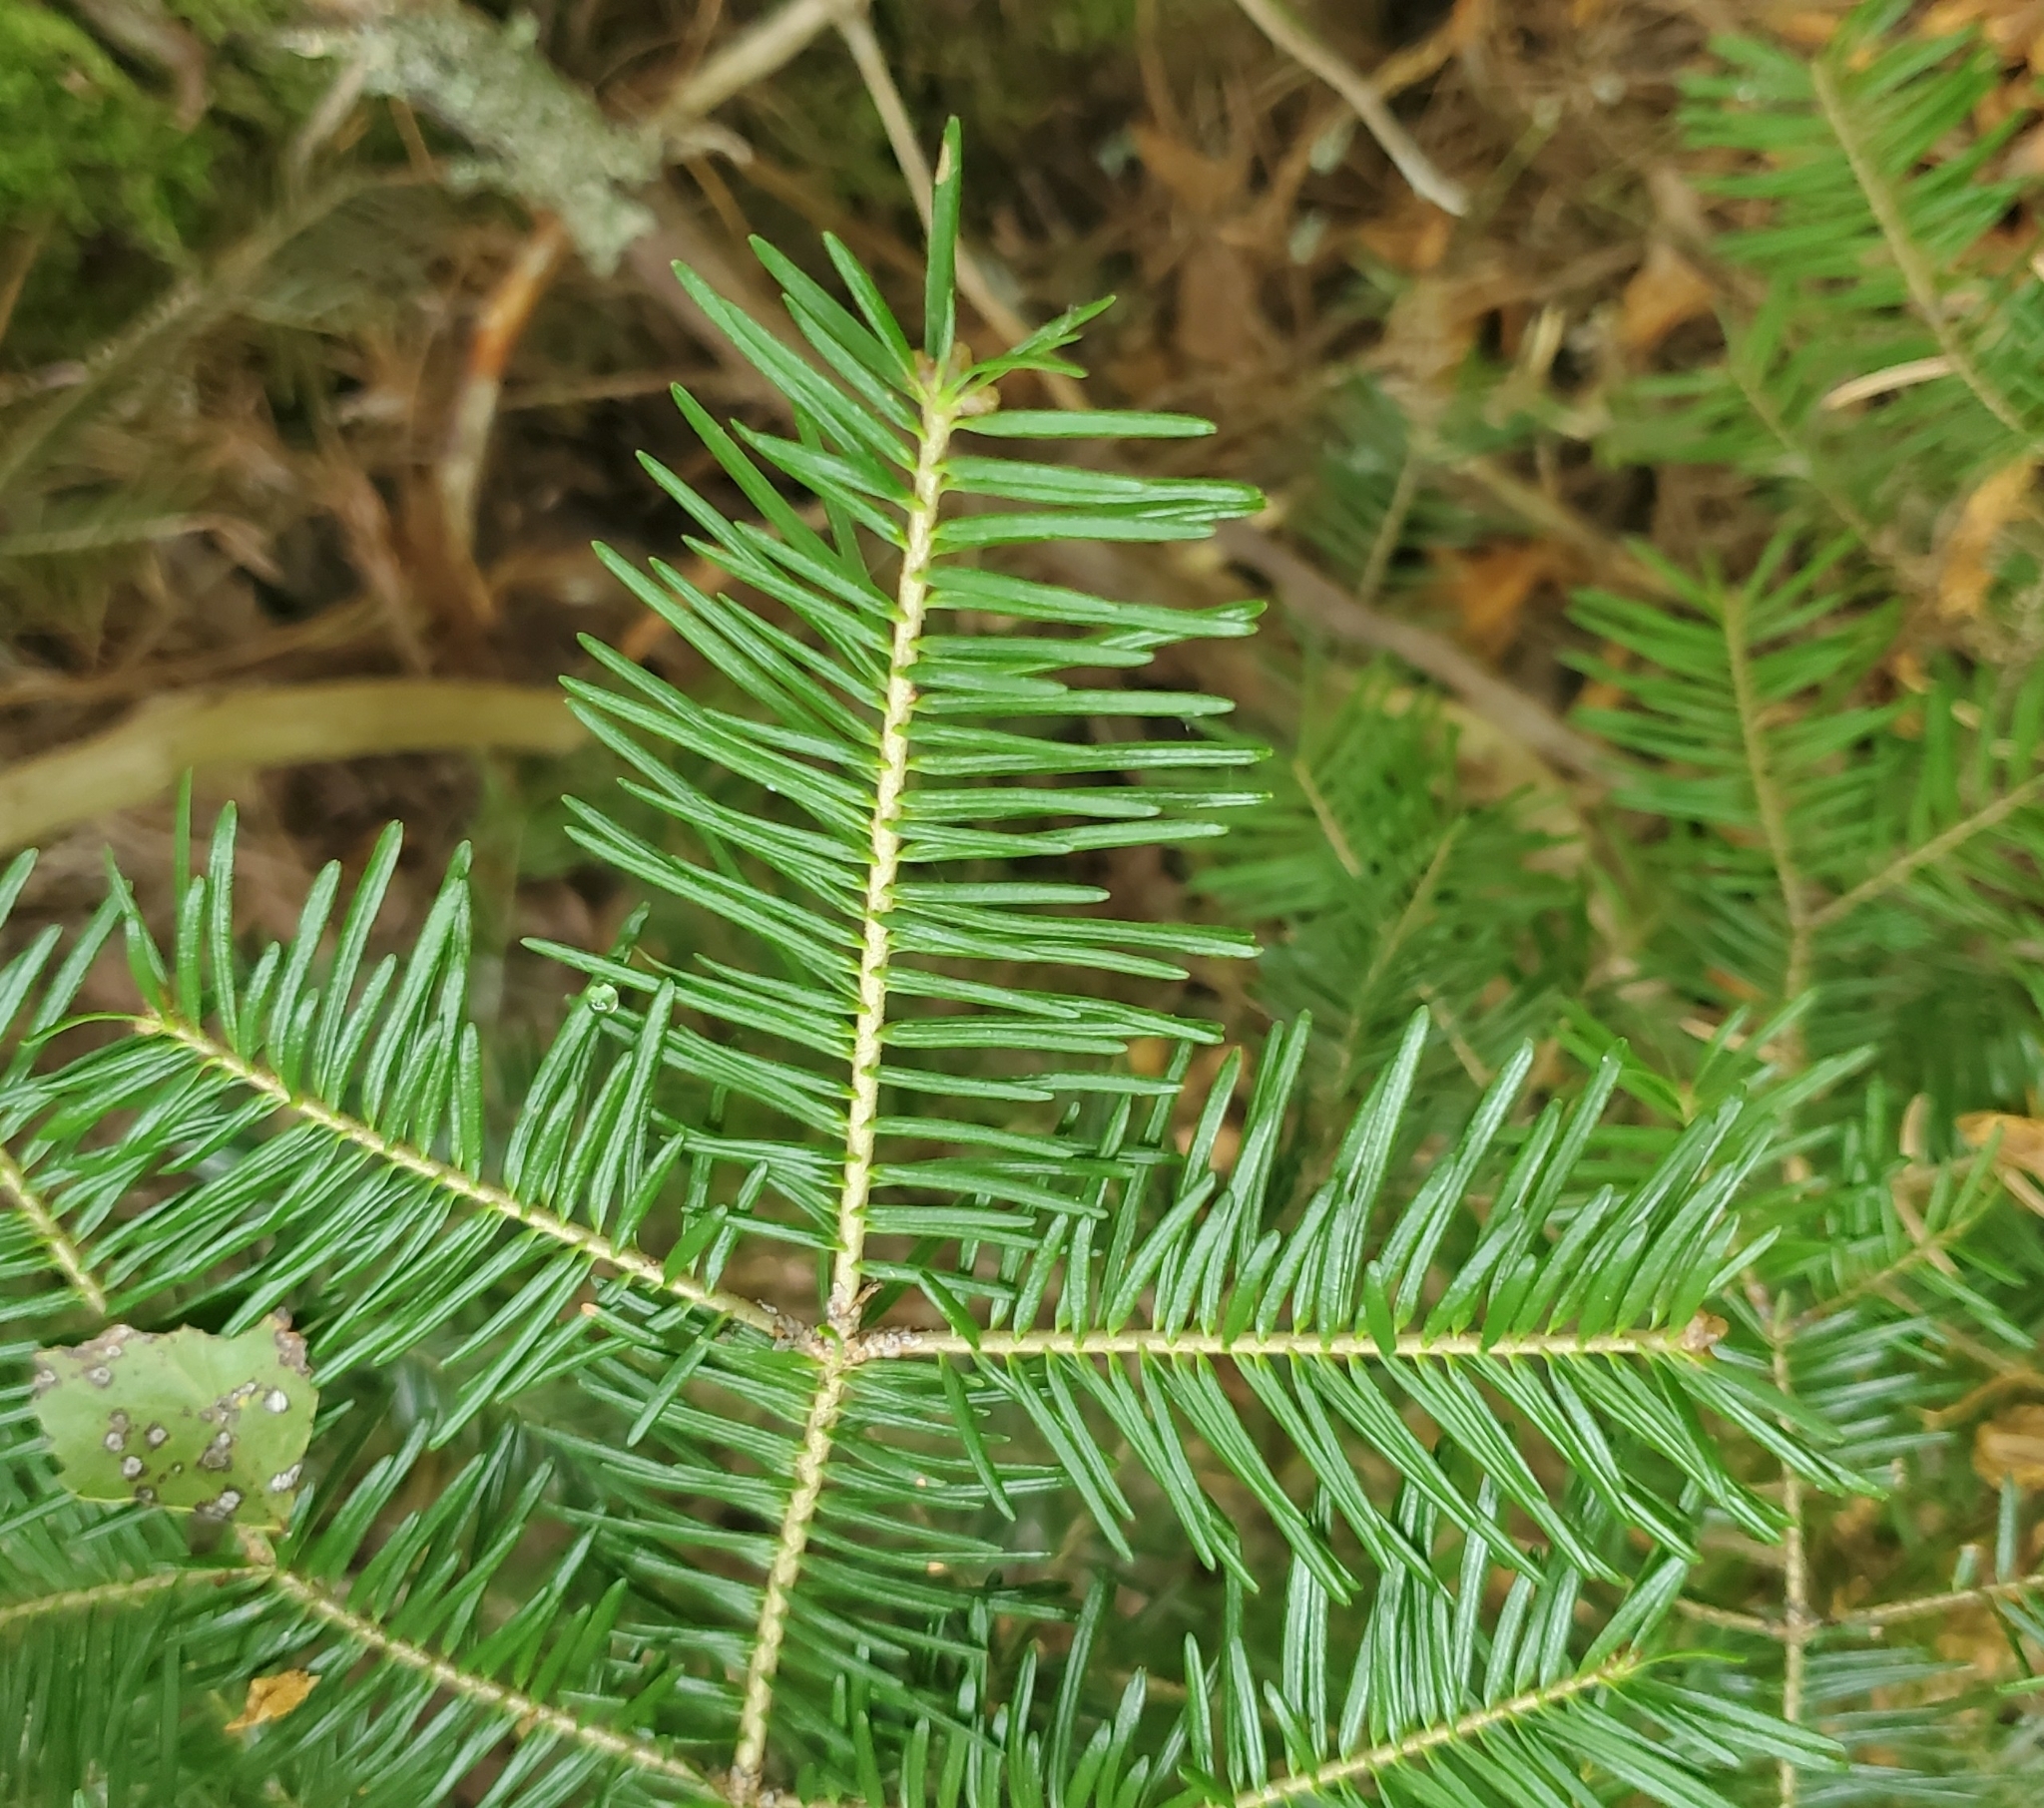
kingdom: Plantae
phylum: Tracheophyta
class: Pinopsida
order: Pinales
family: Pinaceae
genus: Abies
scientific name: Abies balsamea
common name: Balsam fir
